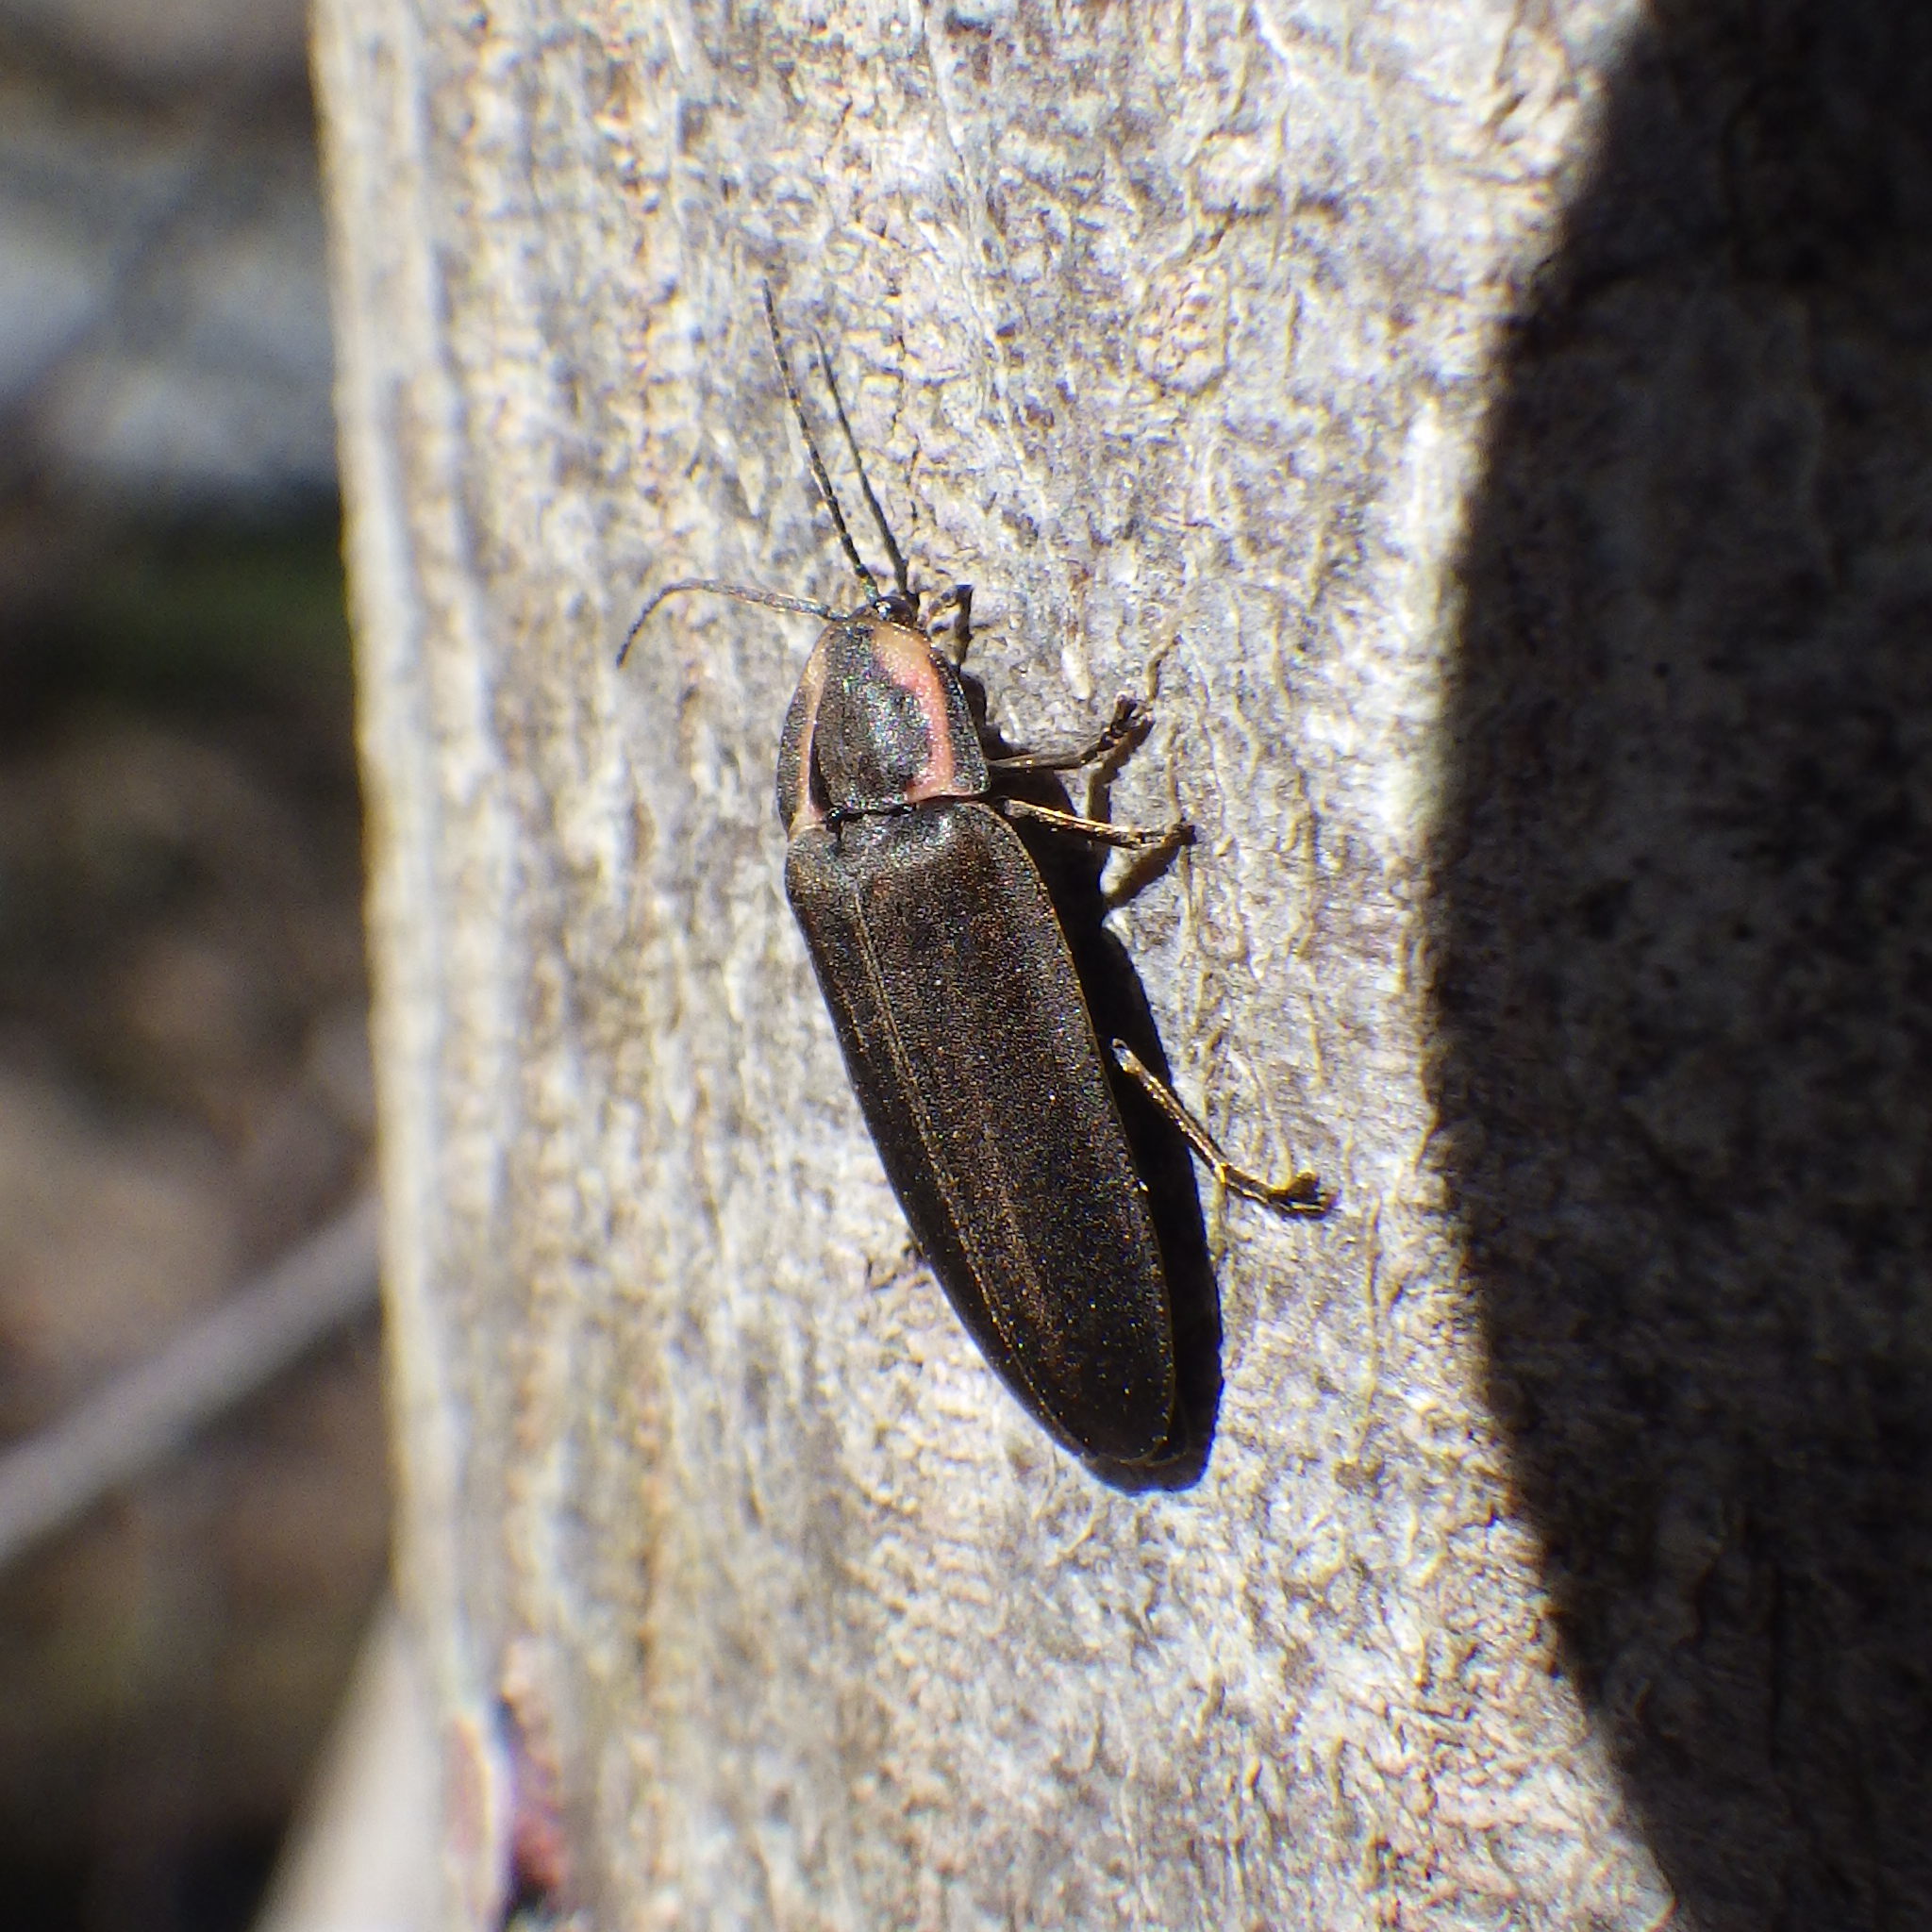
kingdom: Animalia
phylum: Arthropoda
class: Insecta
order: Coleoptera
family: Lampyridae
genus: Photinus
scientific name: Photinus corrusca
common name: Winter firefly
